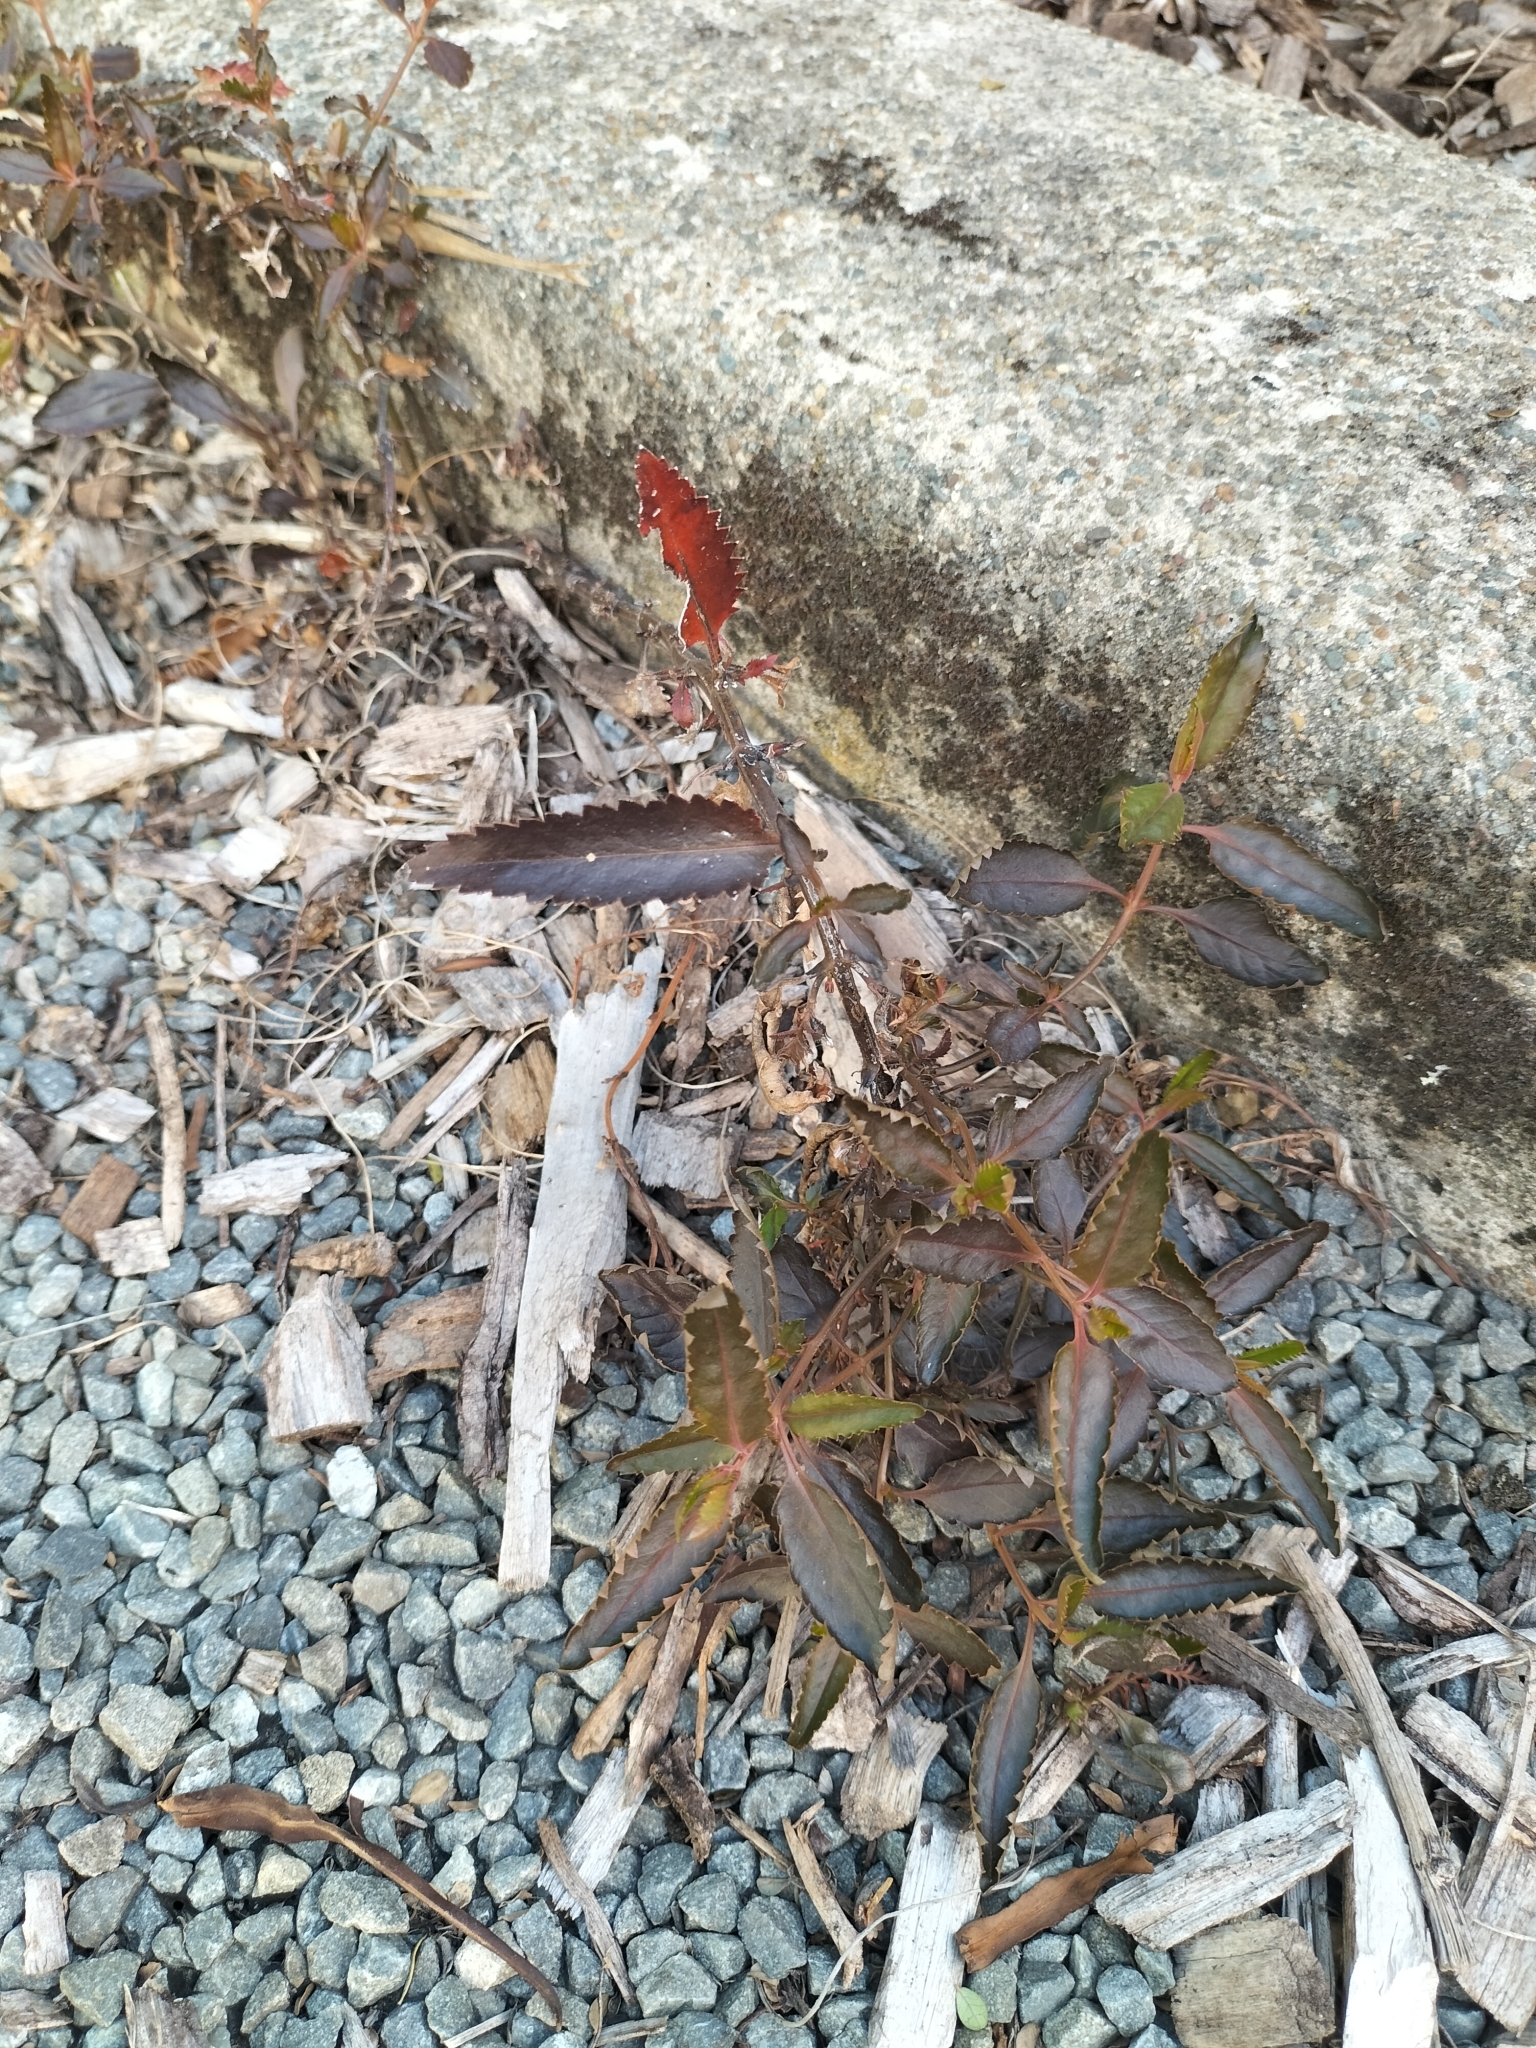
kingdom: Plantae
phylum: Tracheophyta
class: Magnoliopsida
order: Saxifragales
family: Haloragaceae
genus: Haloragis
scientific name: Haloragis erecta
